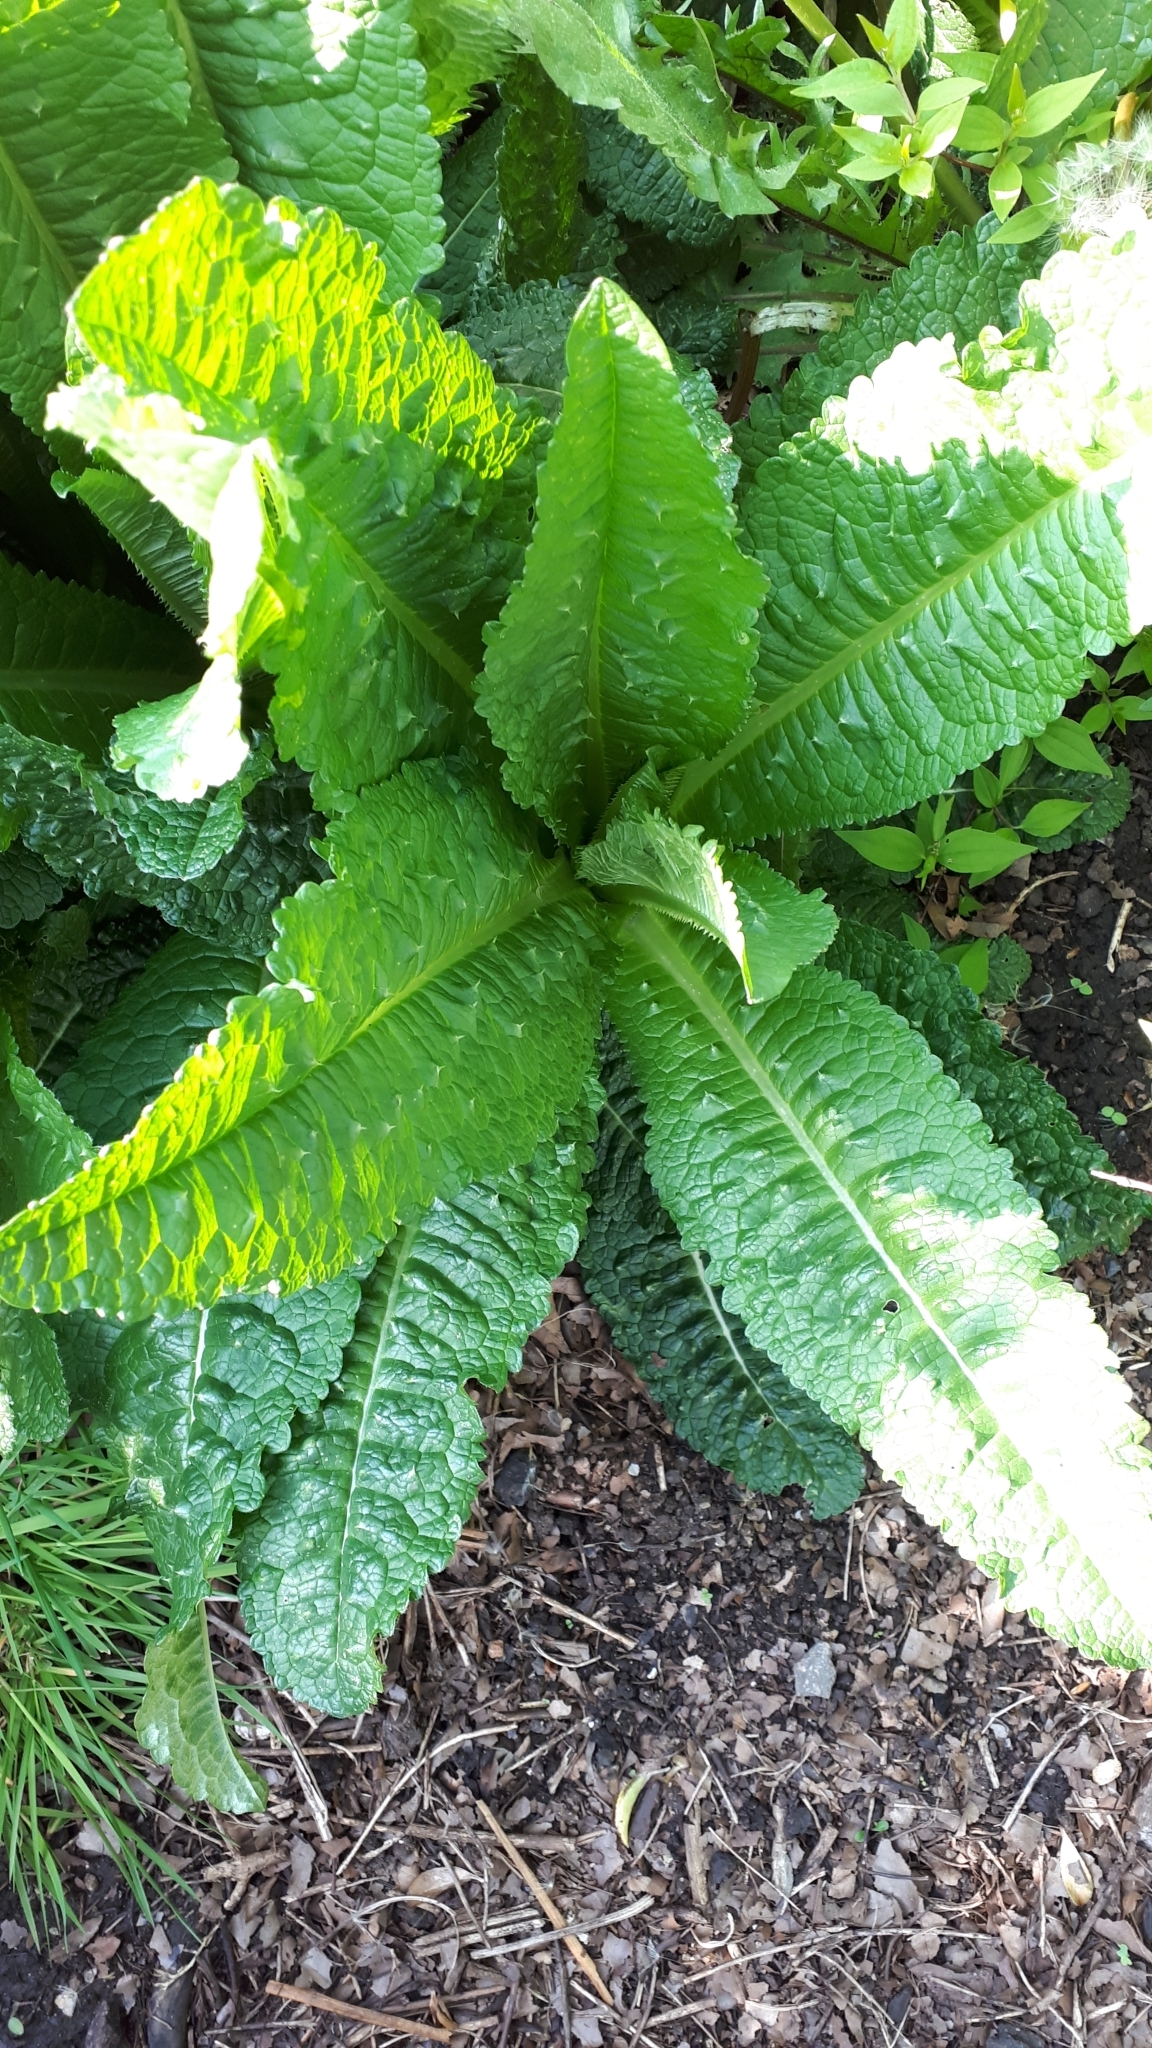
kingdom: Plantae
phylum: Tracheophyta
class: Magnoliopsida
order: Dipsacales
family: Caprifoliaceae
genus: Dipsacus
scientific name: Dipsacus fullonum
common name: Teasel
